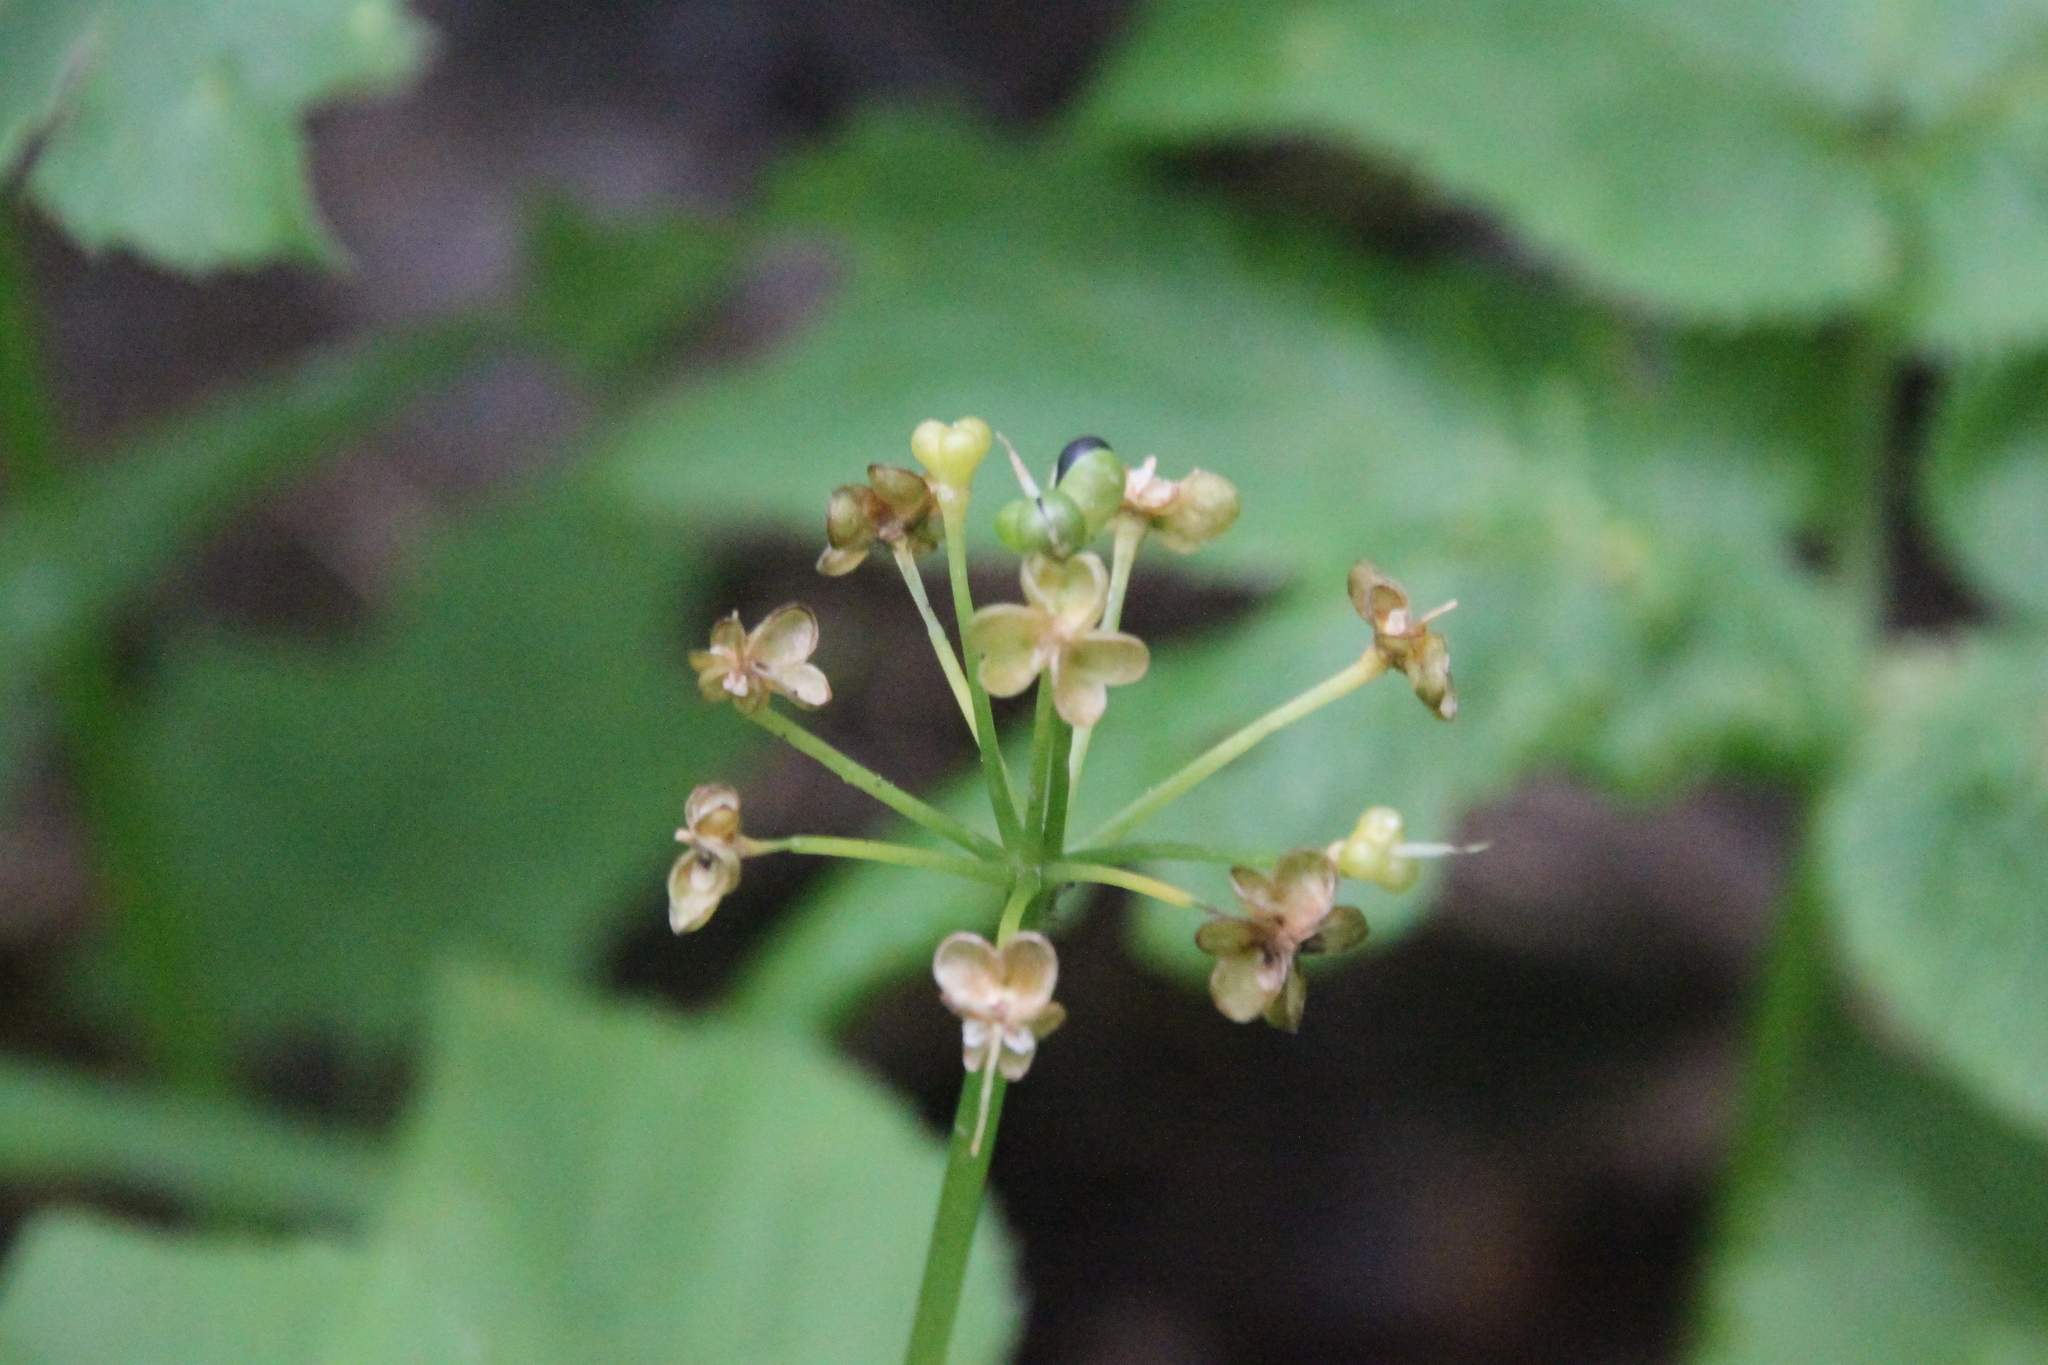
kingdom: Plantae
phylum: Tracheophyta
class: Liliopsida
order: Asparagales
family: Amaryllidaceae
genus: Allium
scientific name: Allium ursinum
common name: Ramsons
